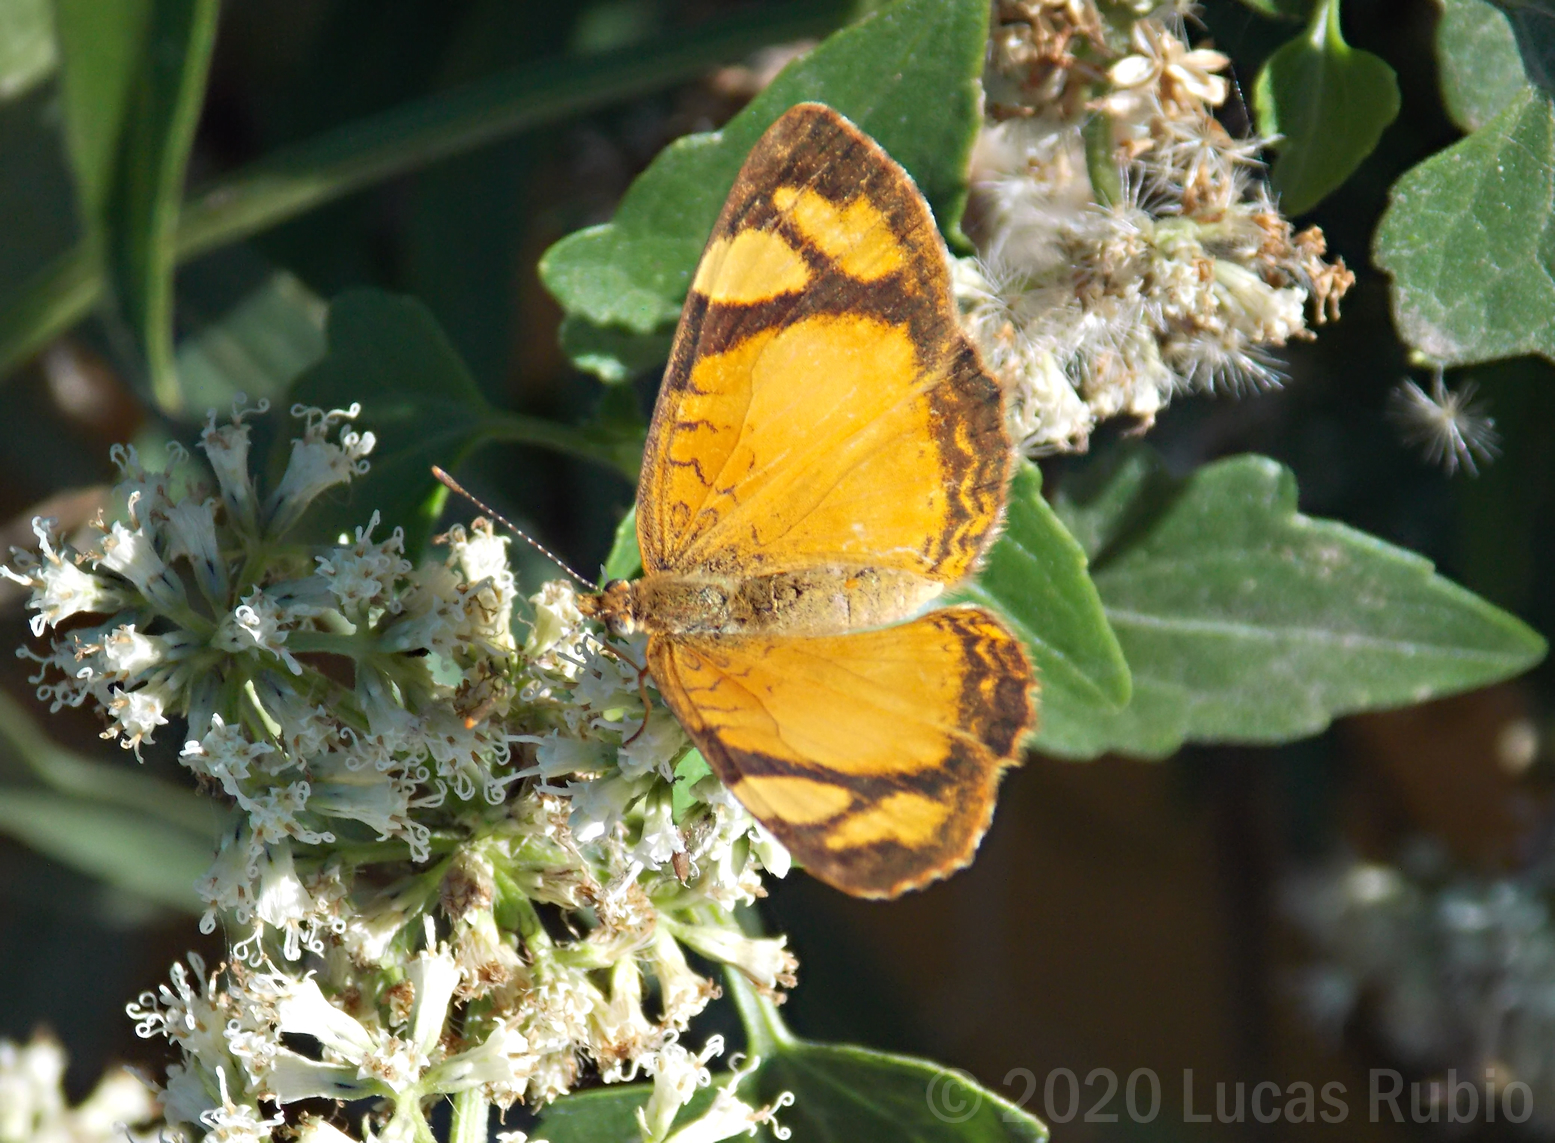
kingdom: Animalia
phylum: Arthropoda
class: Insecta
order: Lepidoptera
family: Nymphalidae
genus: Tegosa
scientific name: Tegosa claudina
